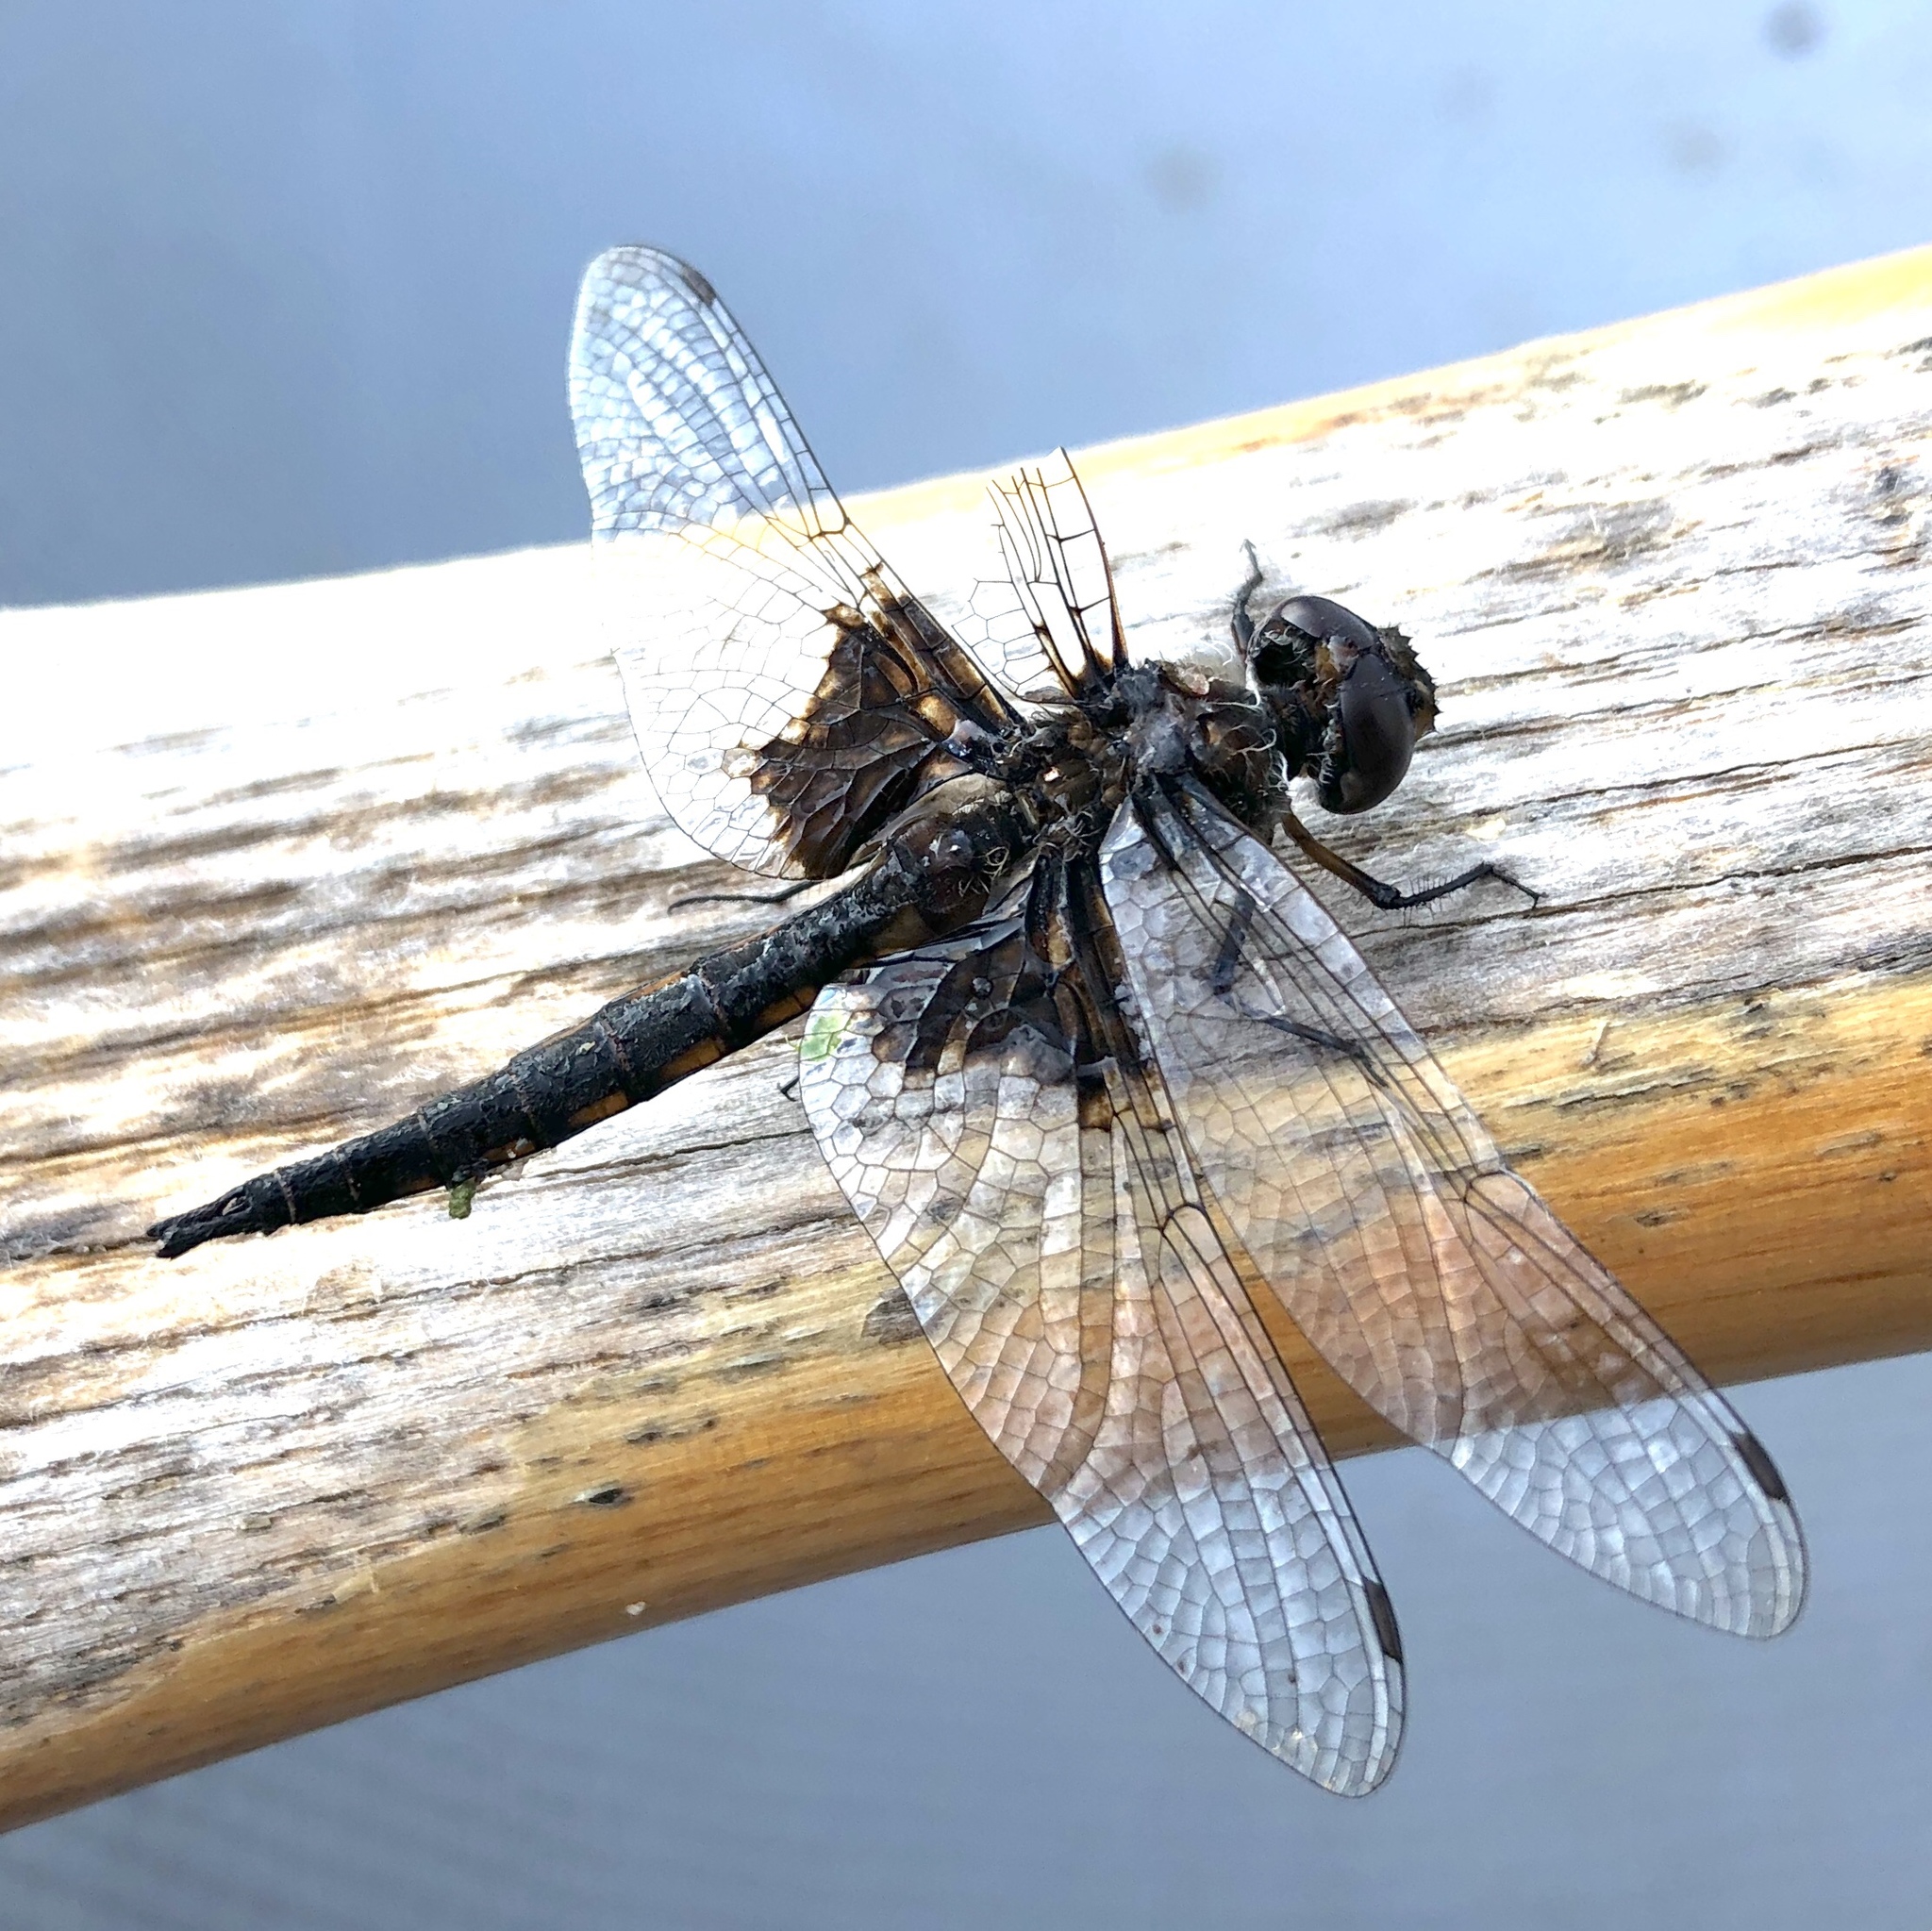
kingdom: Animalia
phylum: Arthropoda
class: Insecta
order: Odonata
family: Corduliidae
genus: Epitheca
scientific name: Epitheca cynosura
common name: Common baskettail
